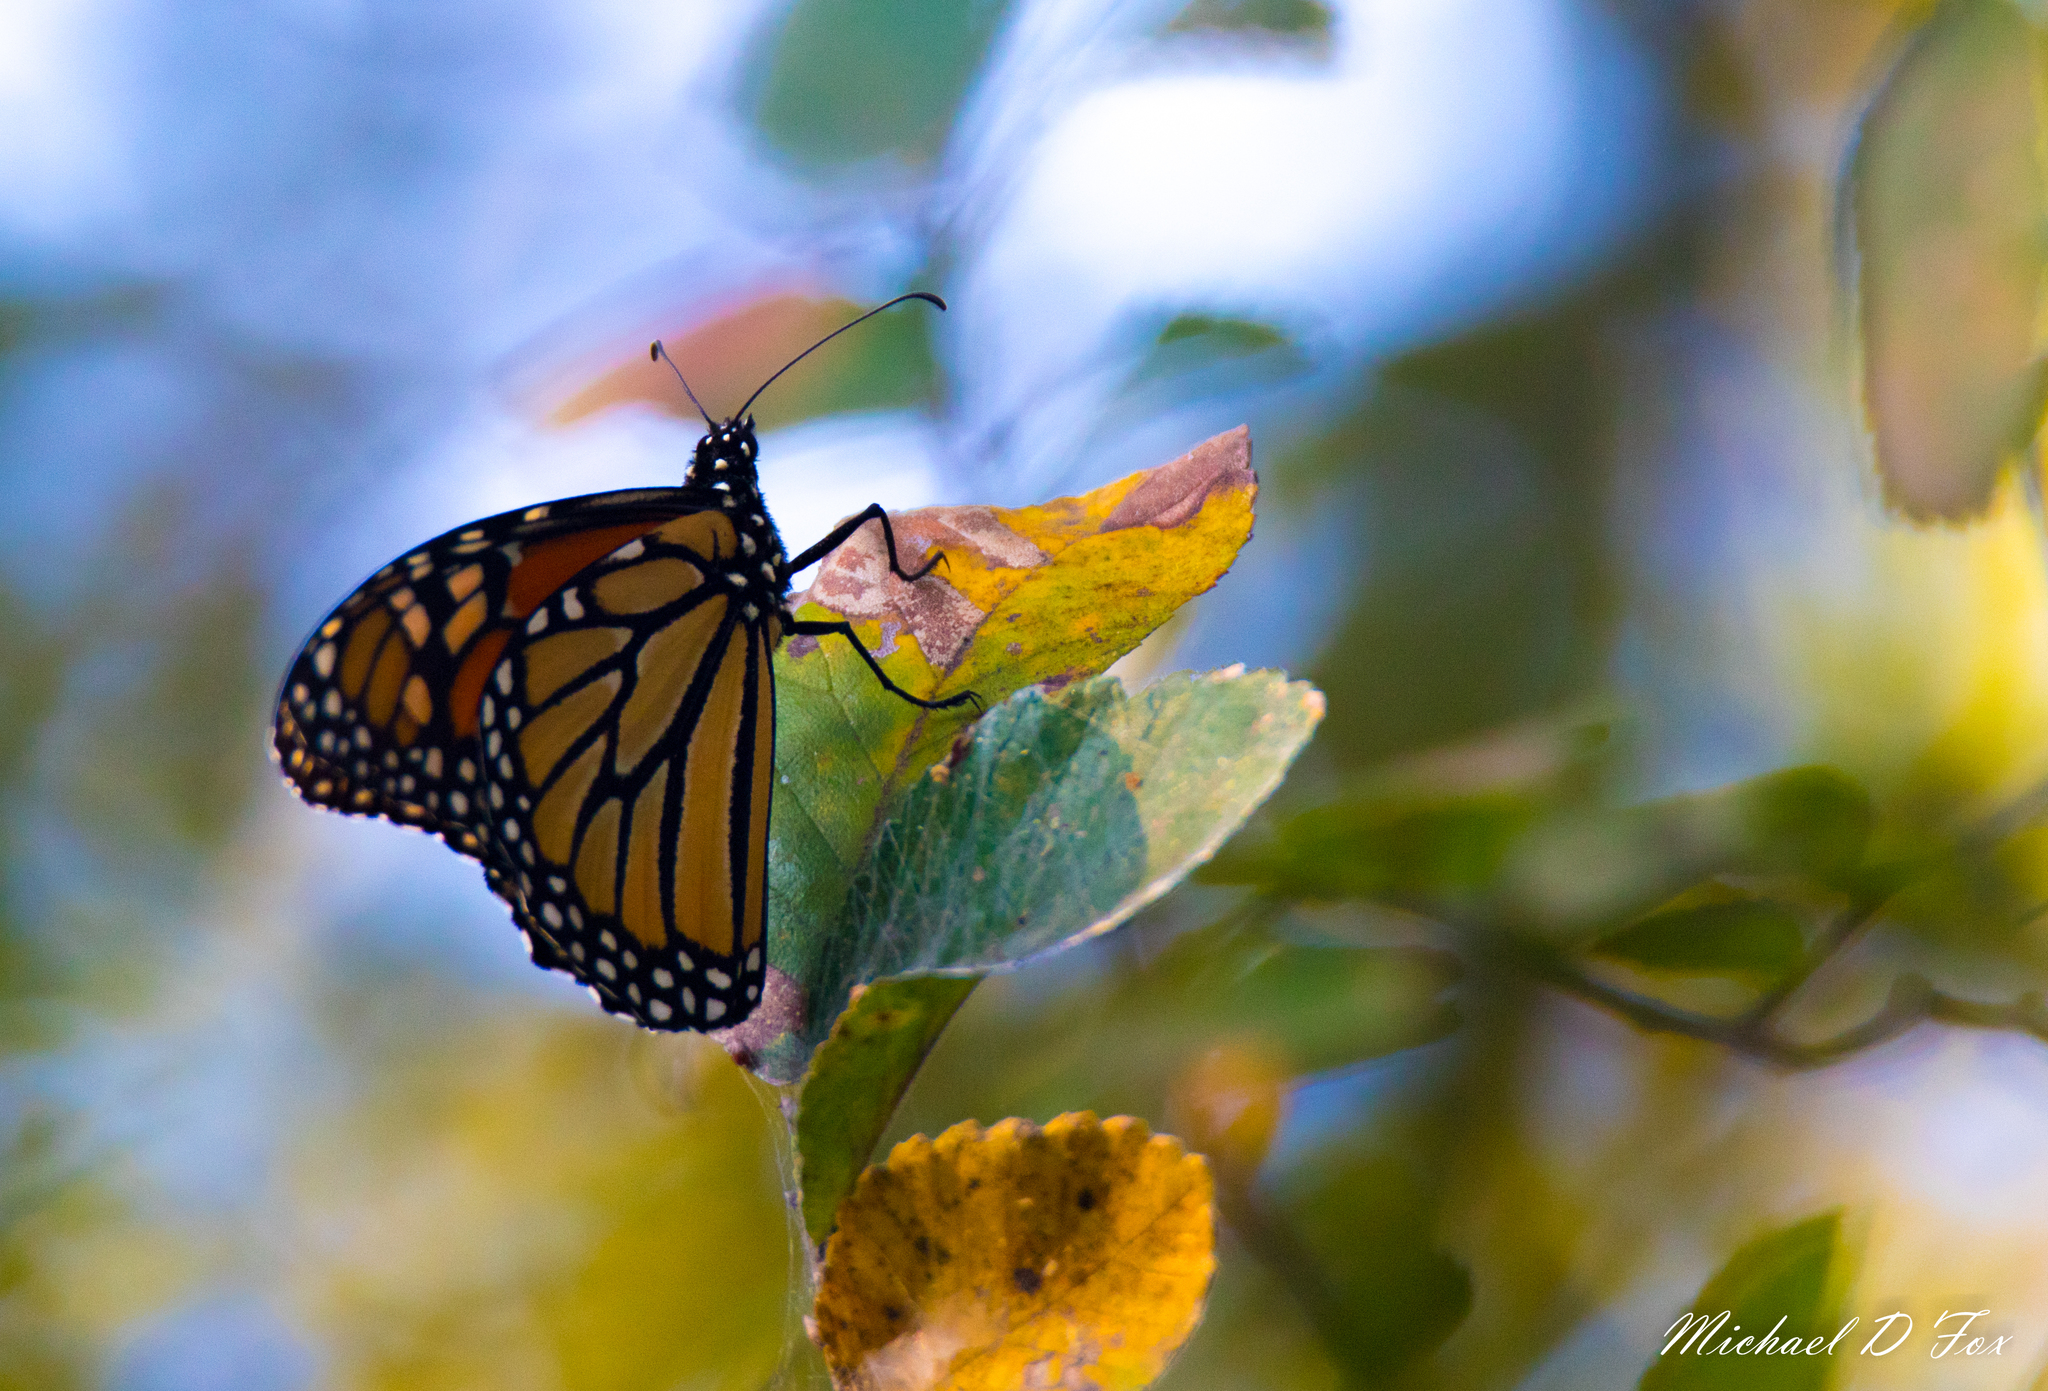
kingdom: Animalia
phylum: Arthropoda
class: Insecta
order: Lepidoptera
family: Nymphalidae
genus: Danaus
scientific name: Danaus plexippus
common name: Monarch
